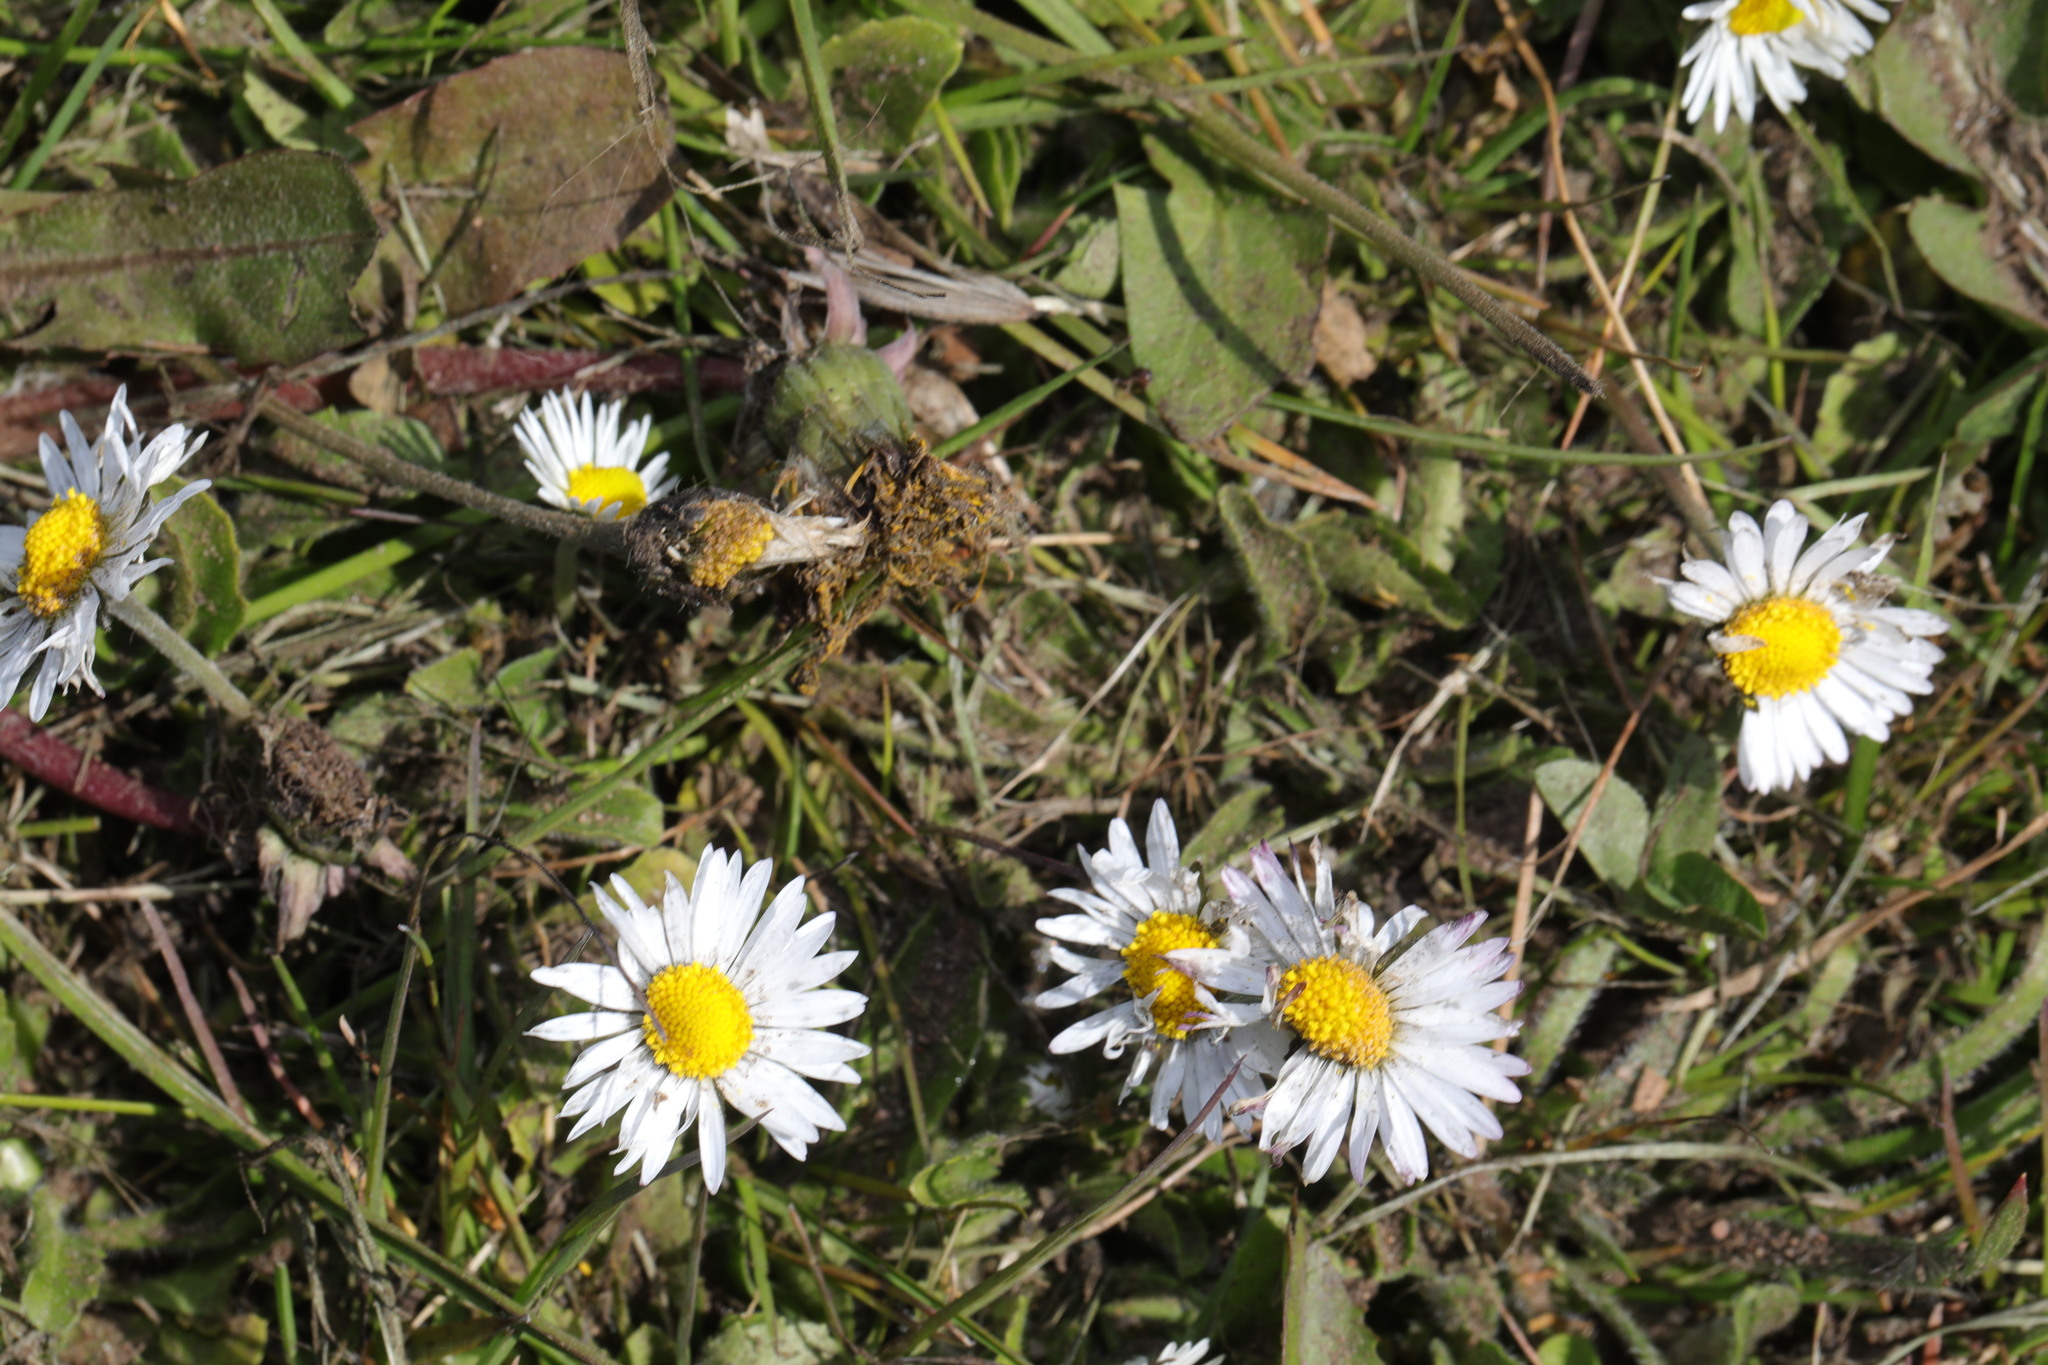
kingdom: Plantae
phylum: Tracheophyta
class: Magnoliopsida
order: Asterales
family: Asteraceae
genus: Bellis
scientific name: Bellis perennis
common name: Lawndaisy
